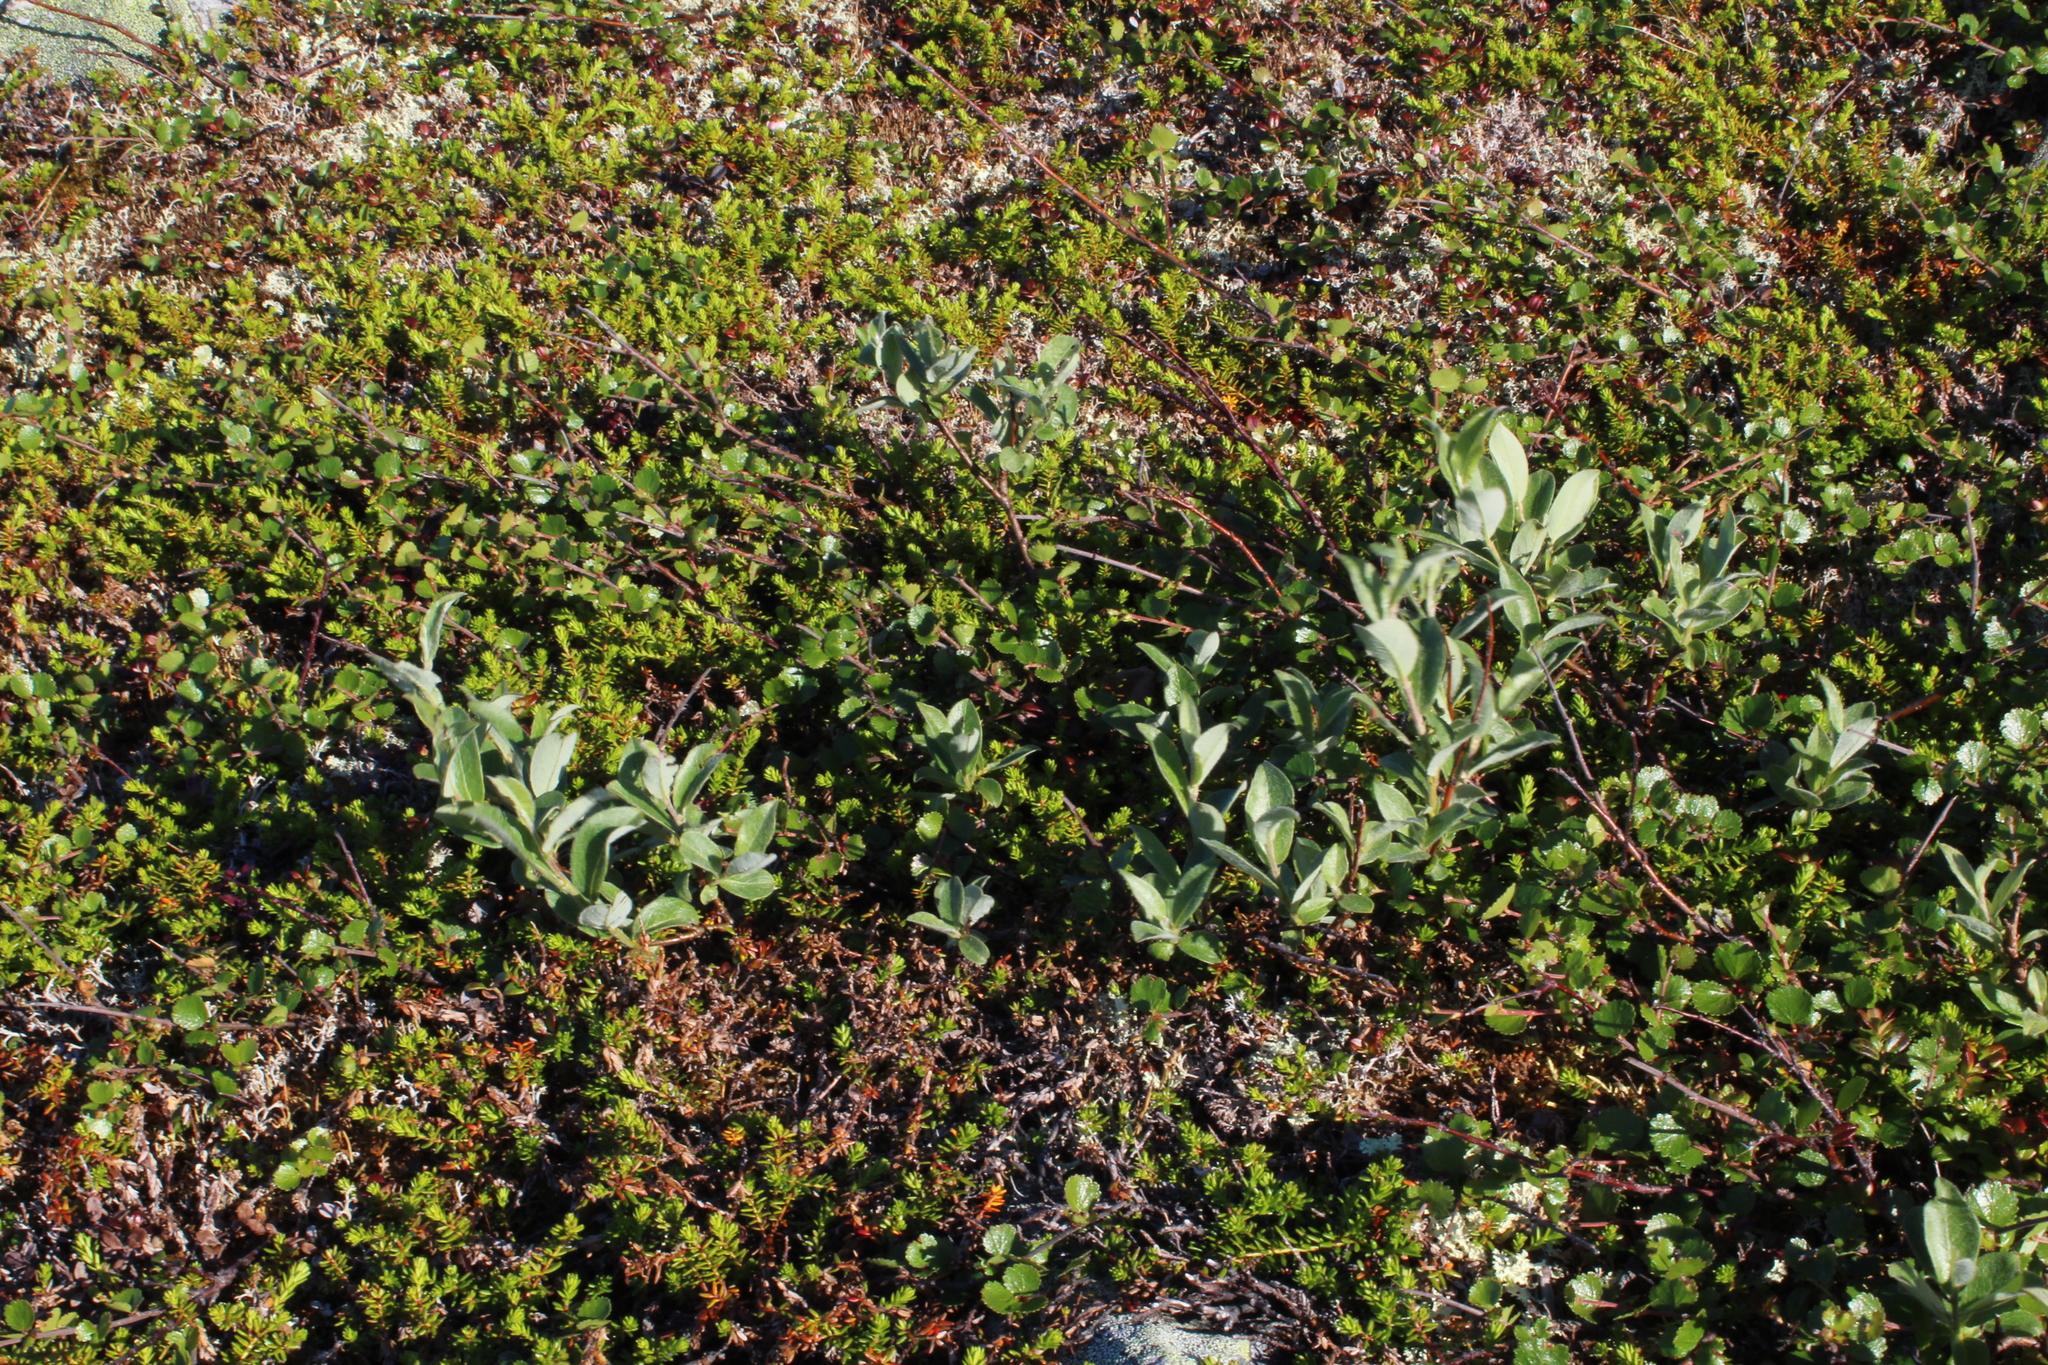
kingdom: Plantae
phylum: Tracheophyta
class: Magnoliopsida
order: Malpighiales
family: Salicaceae
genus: Salix
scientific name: Salix glauca
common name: Glaucous willow
